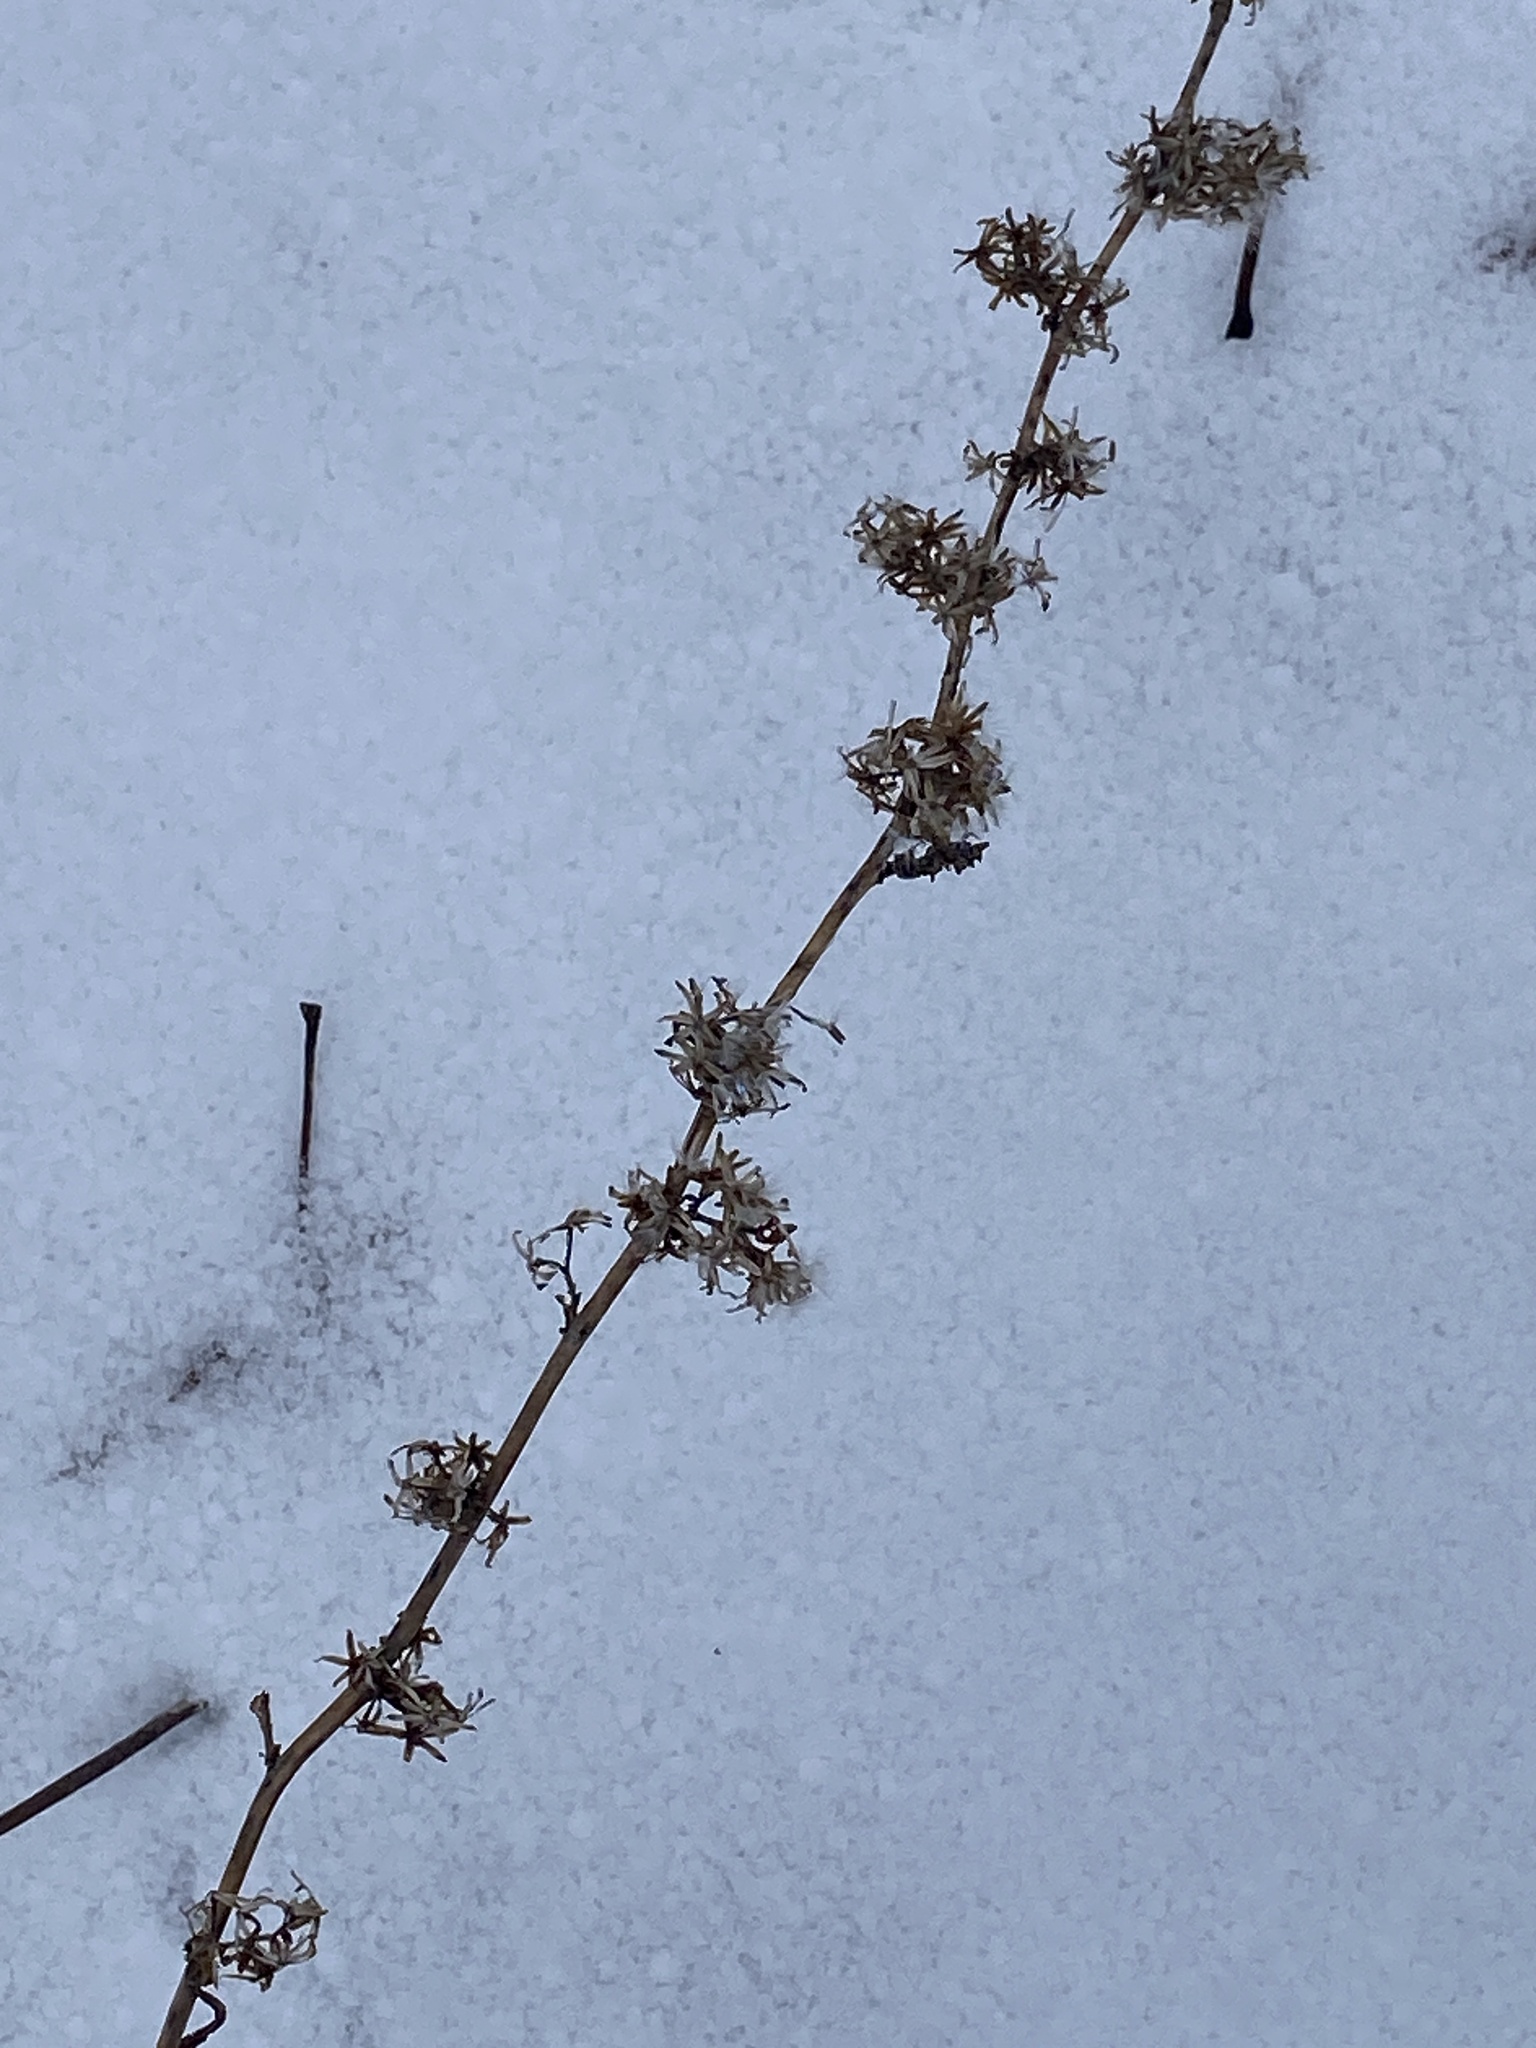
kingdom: Plantae
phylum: Tracheophyta
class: Magnoliopsida
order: Asterales
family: Asteraceae
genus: Solidago
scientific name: Solidago caesia
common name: Woodland goldenrod
